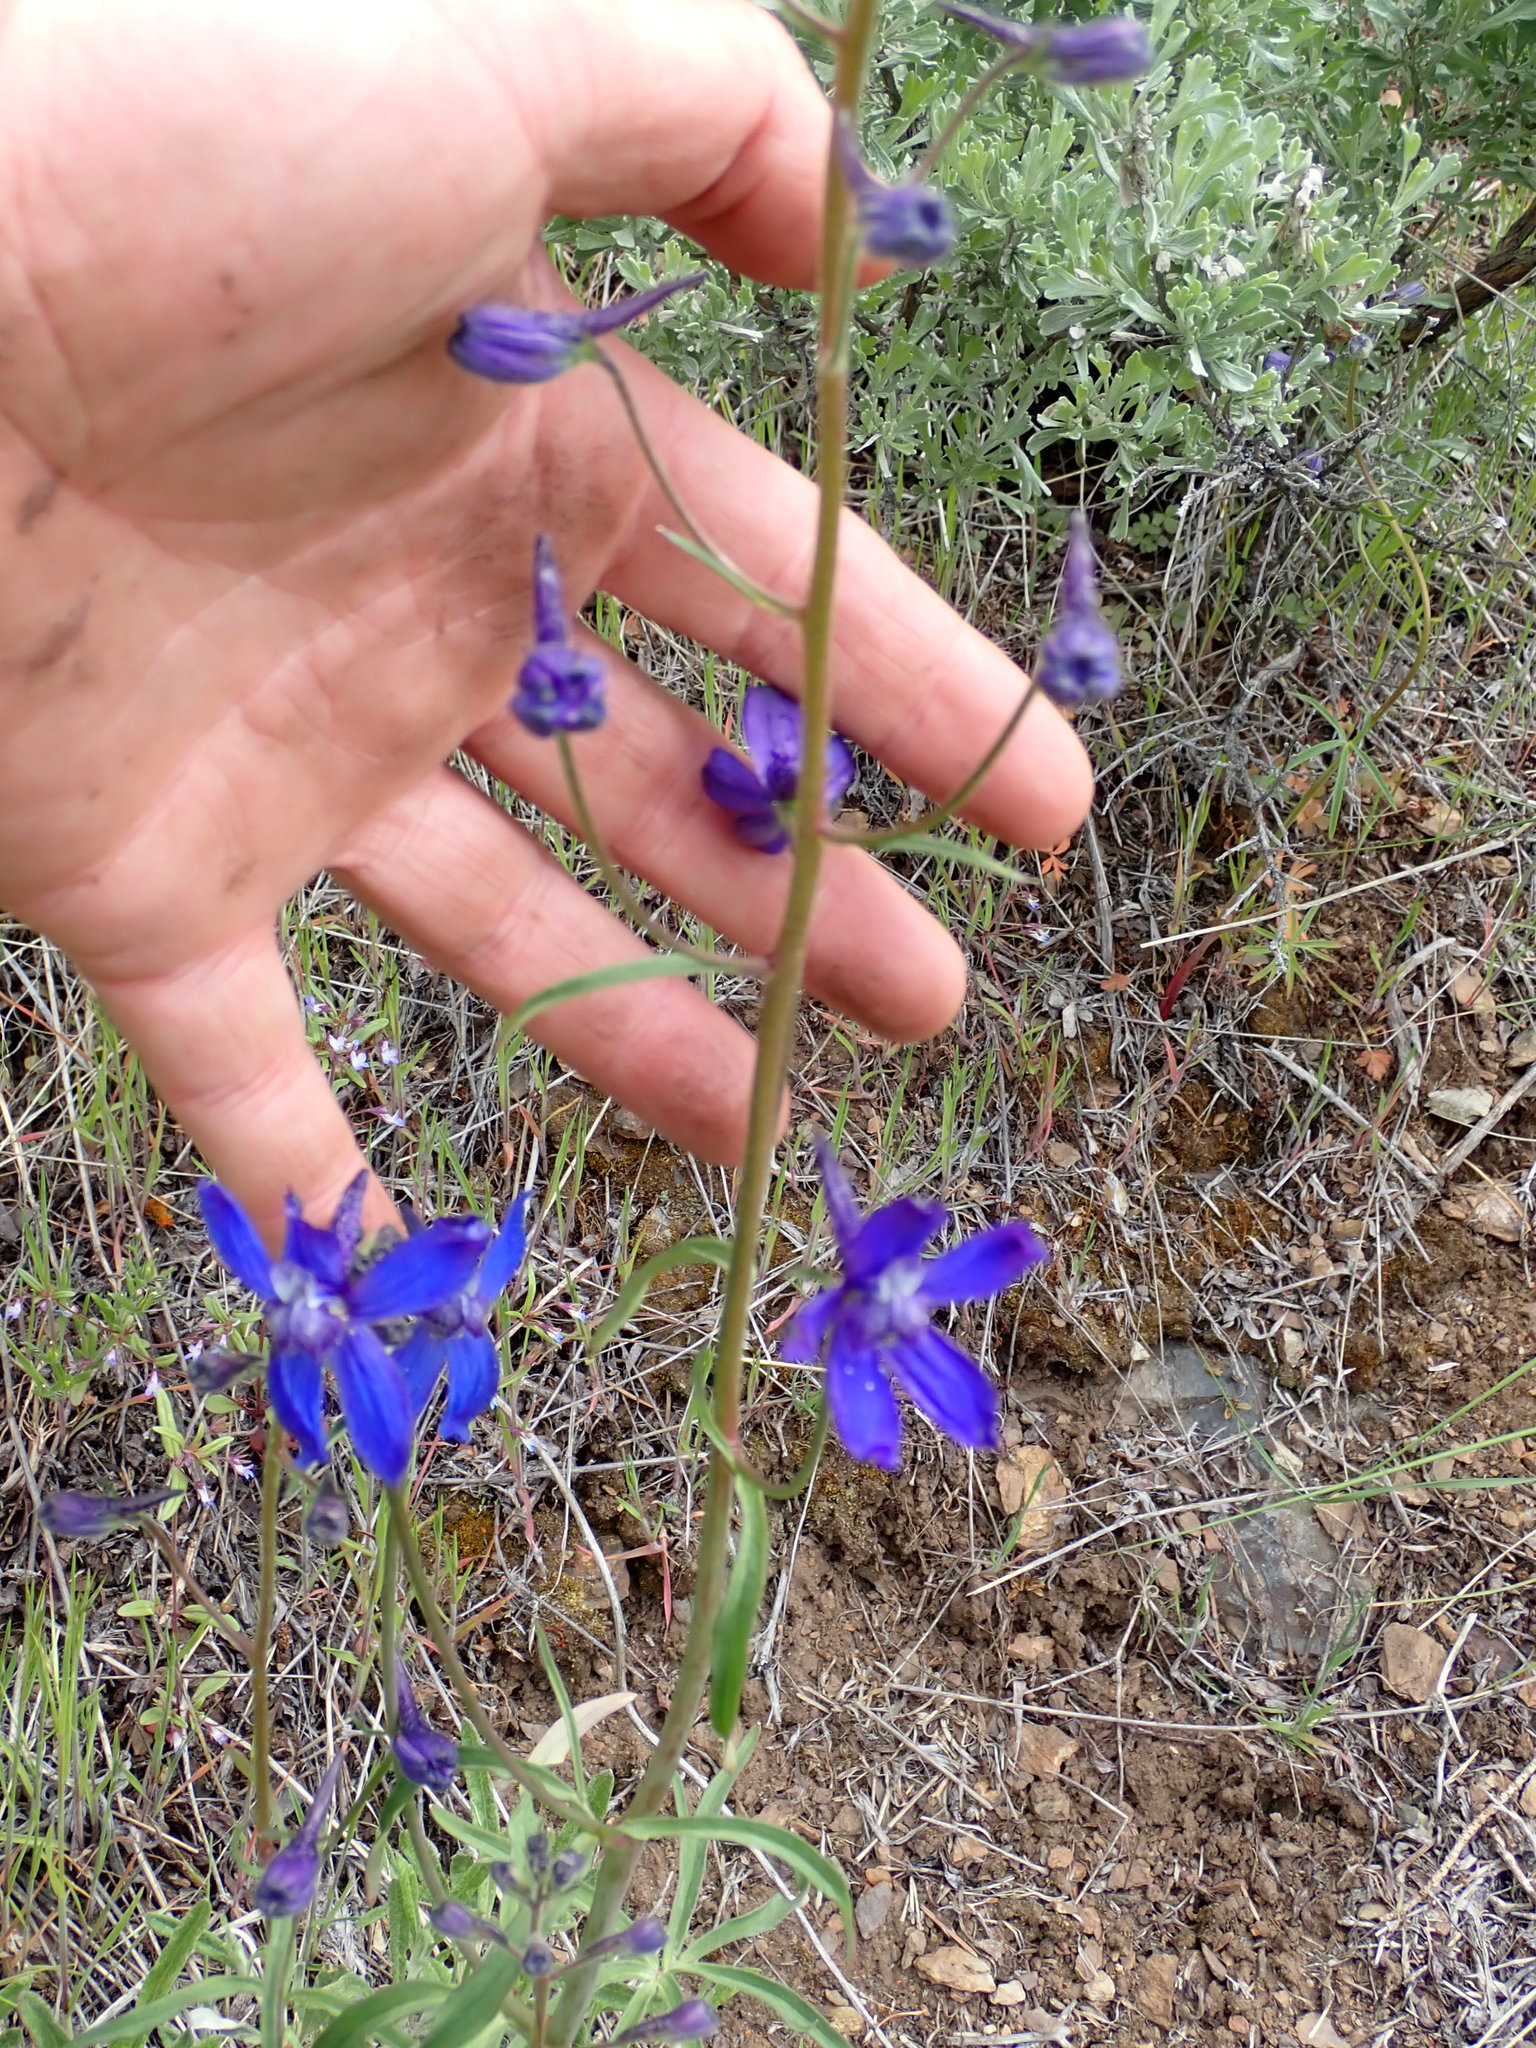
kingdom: Plantae
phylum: Tracheophyta
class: Magnoliopsida
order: Ranunculales
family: Ranunculaceae
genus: Delphinium
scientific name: Delphinium nuttallianum
